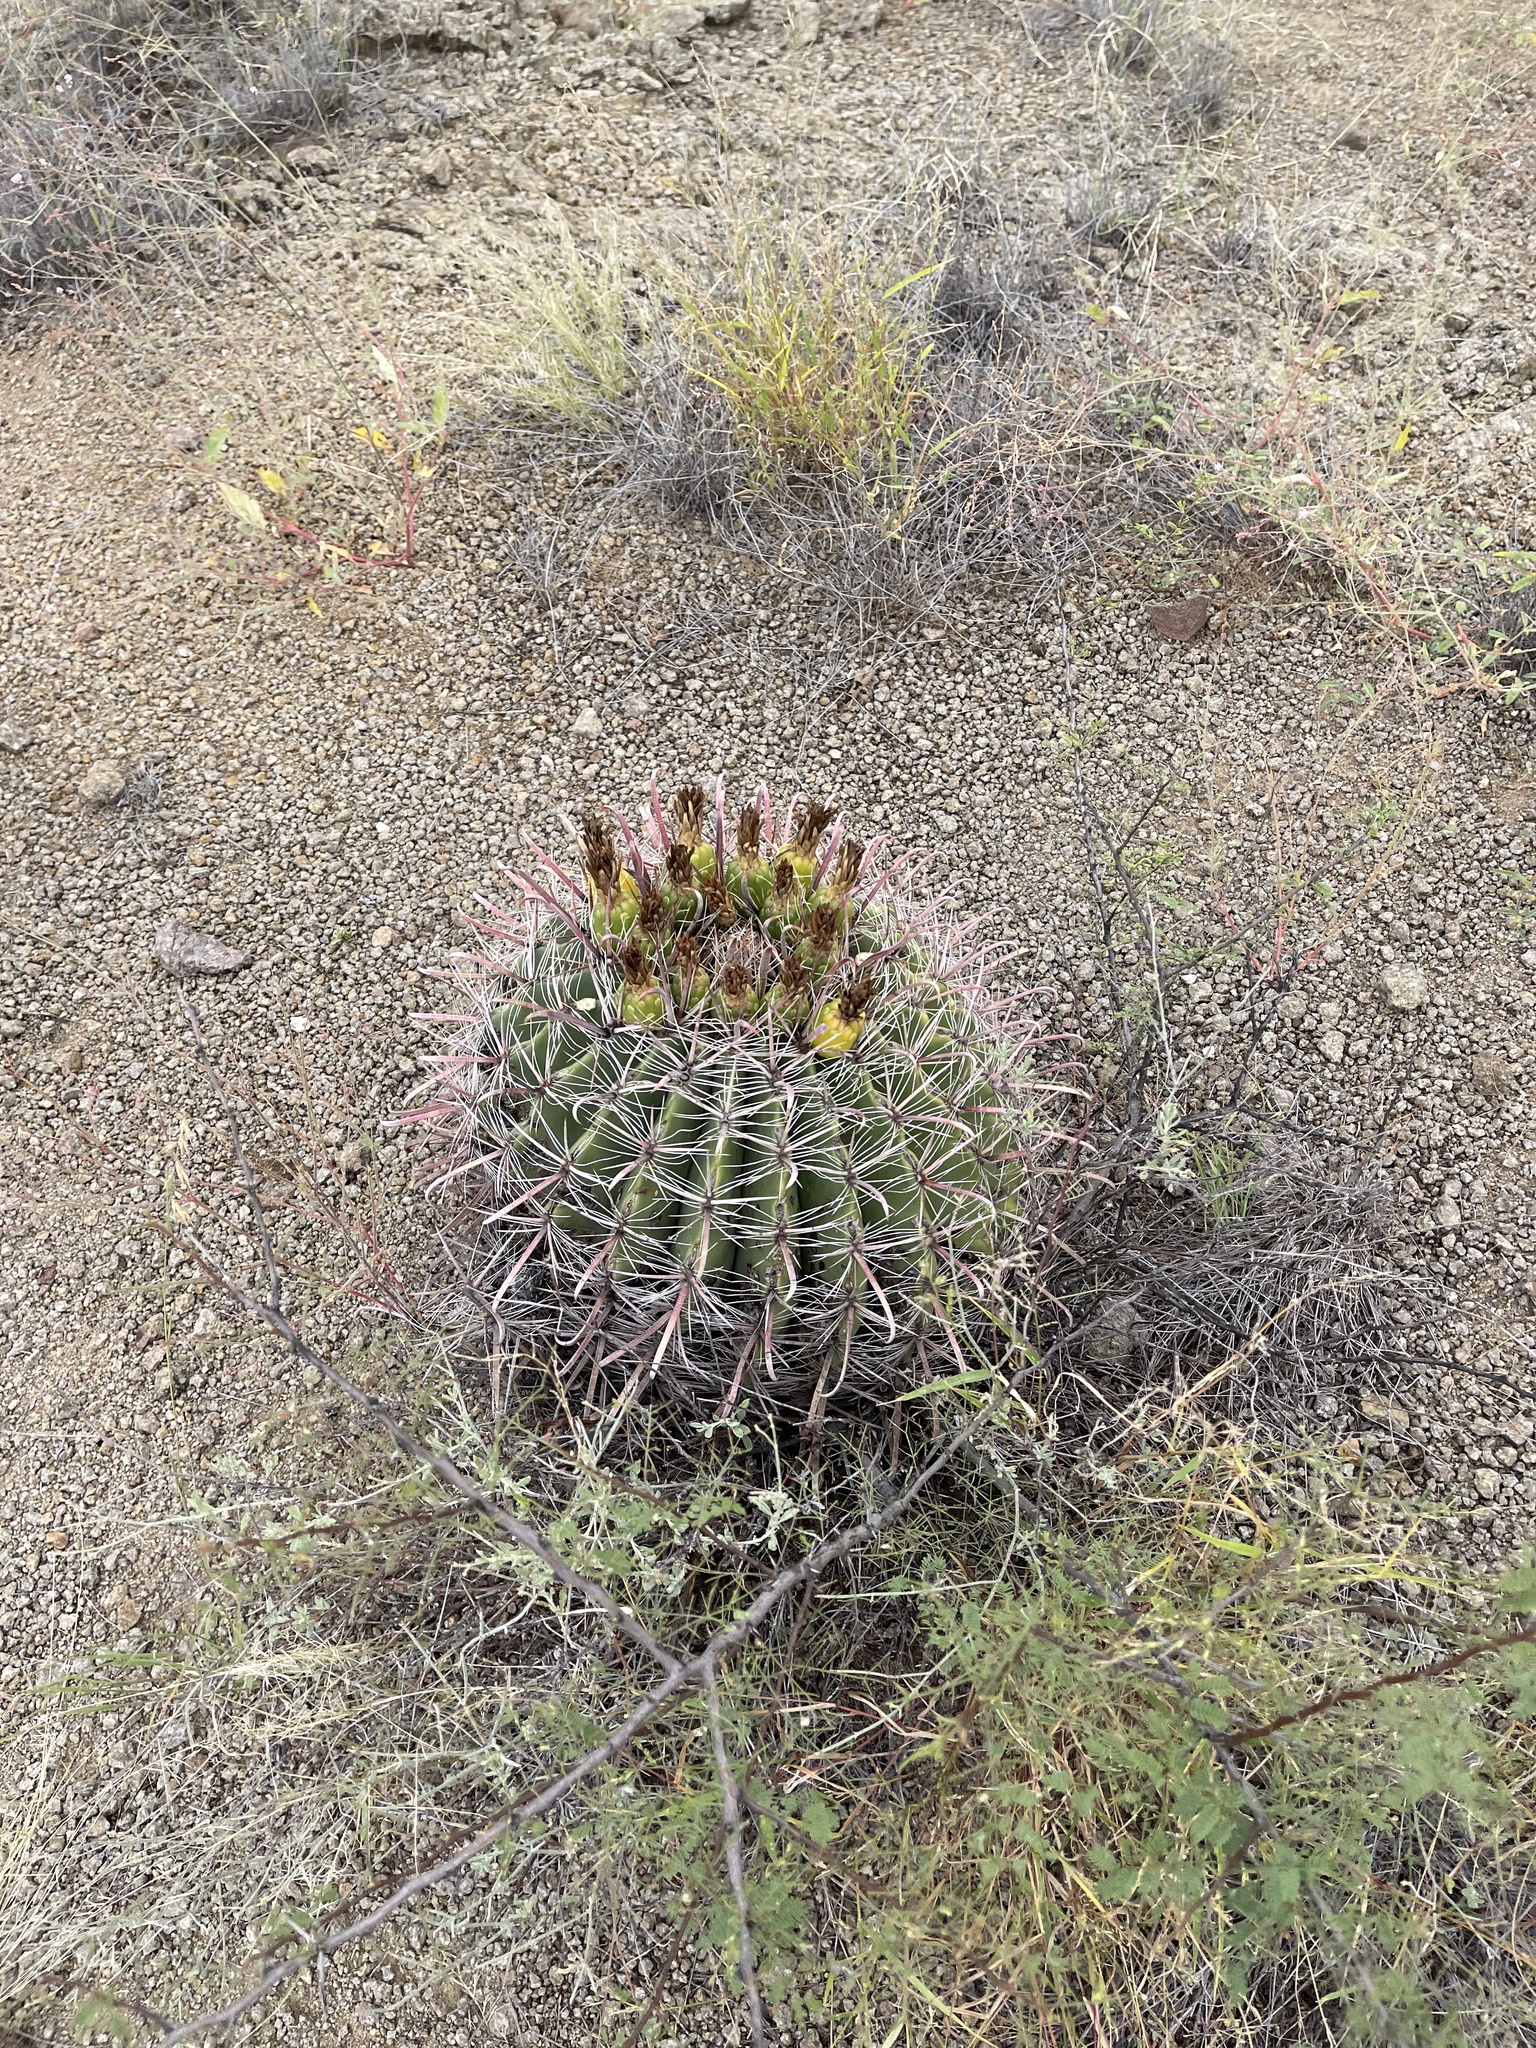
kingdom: Plantae
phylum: Tracheophyta
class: Magnoliopsida
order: Caryophyllales
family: Cactaceae
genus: Ferocactus
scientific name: Ferocactus wislizeni
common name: Candy barrel cactus
